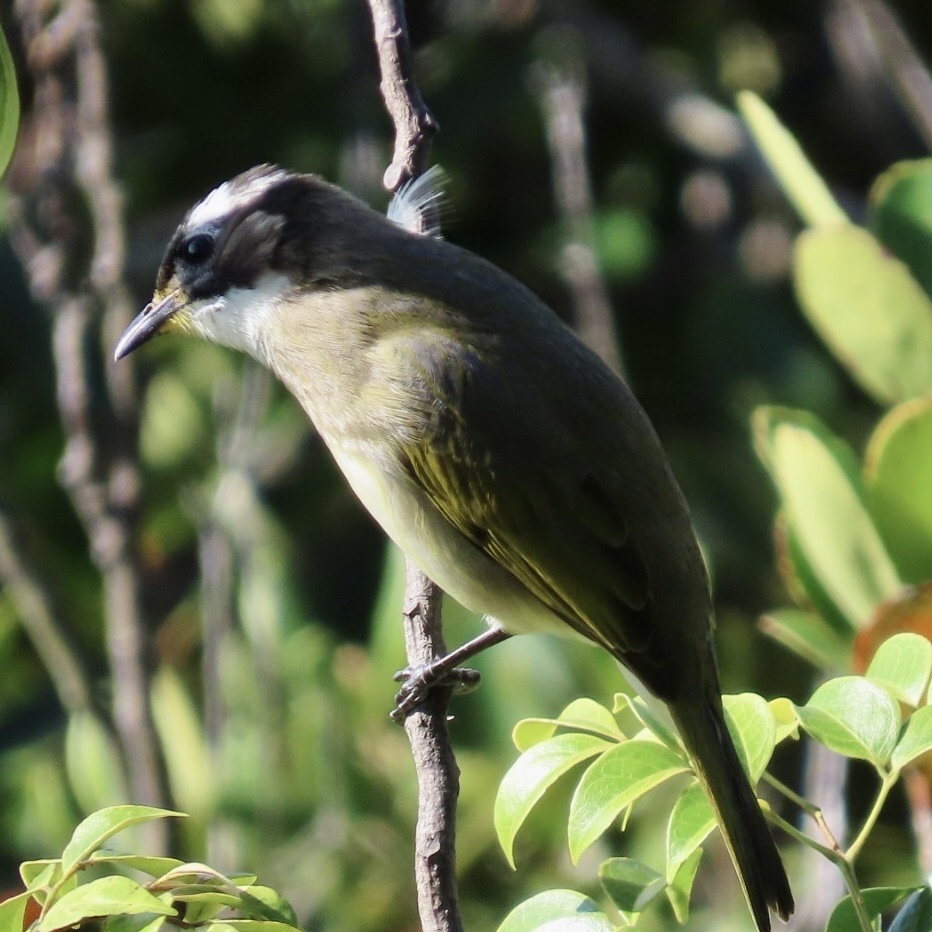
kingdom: Animalia
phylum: Chordata
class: Aves
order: Passeriformes
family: Pycnonotidae
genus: Pycnonotus
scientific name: Pycnonotus sinensis
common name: Light-vented bulbul
